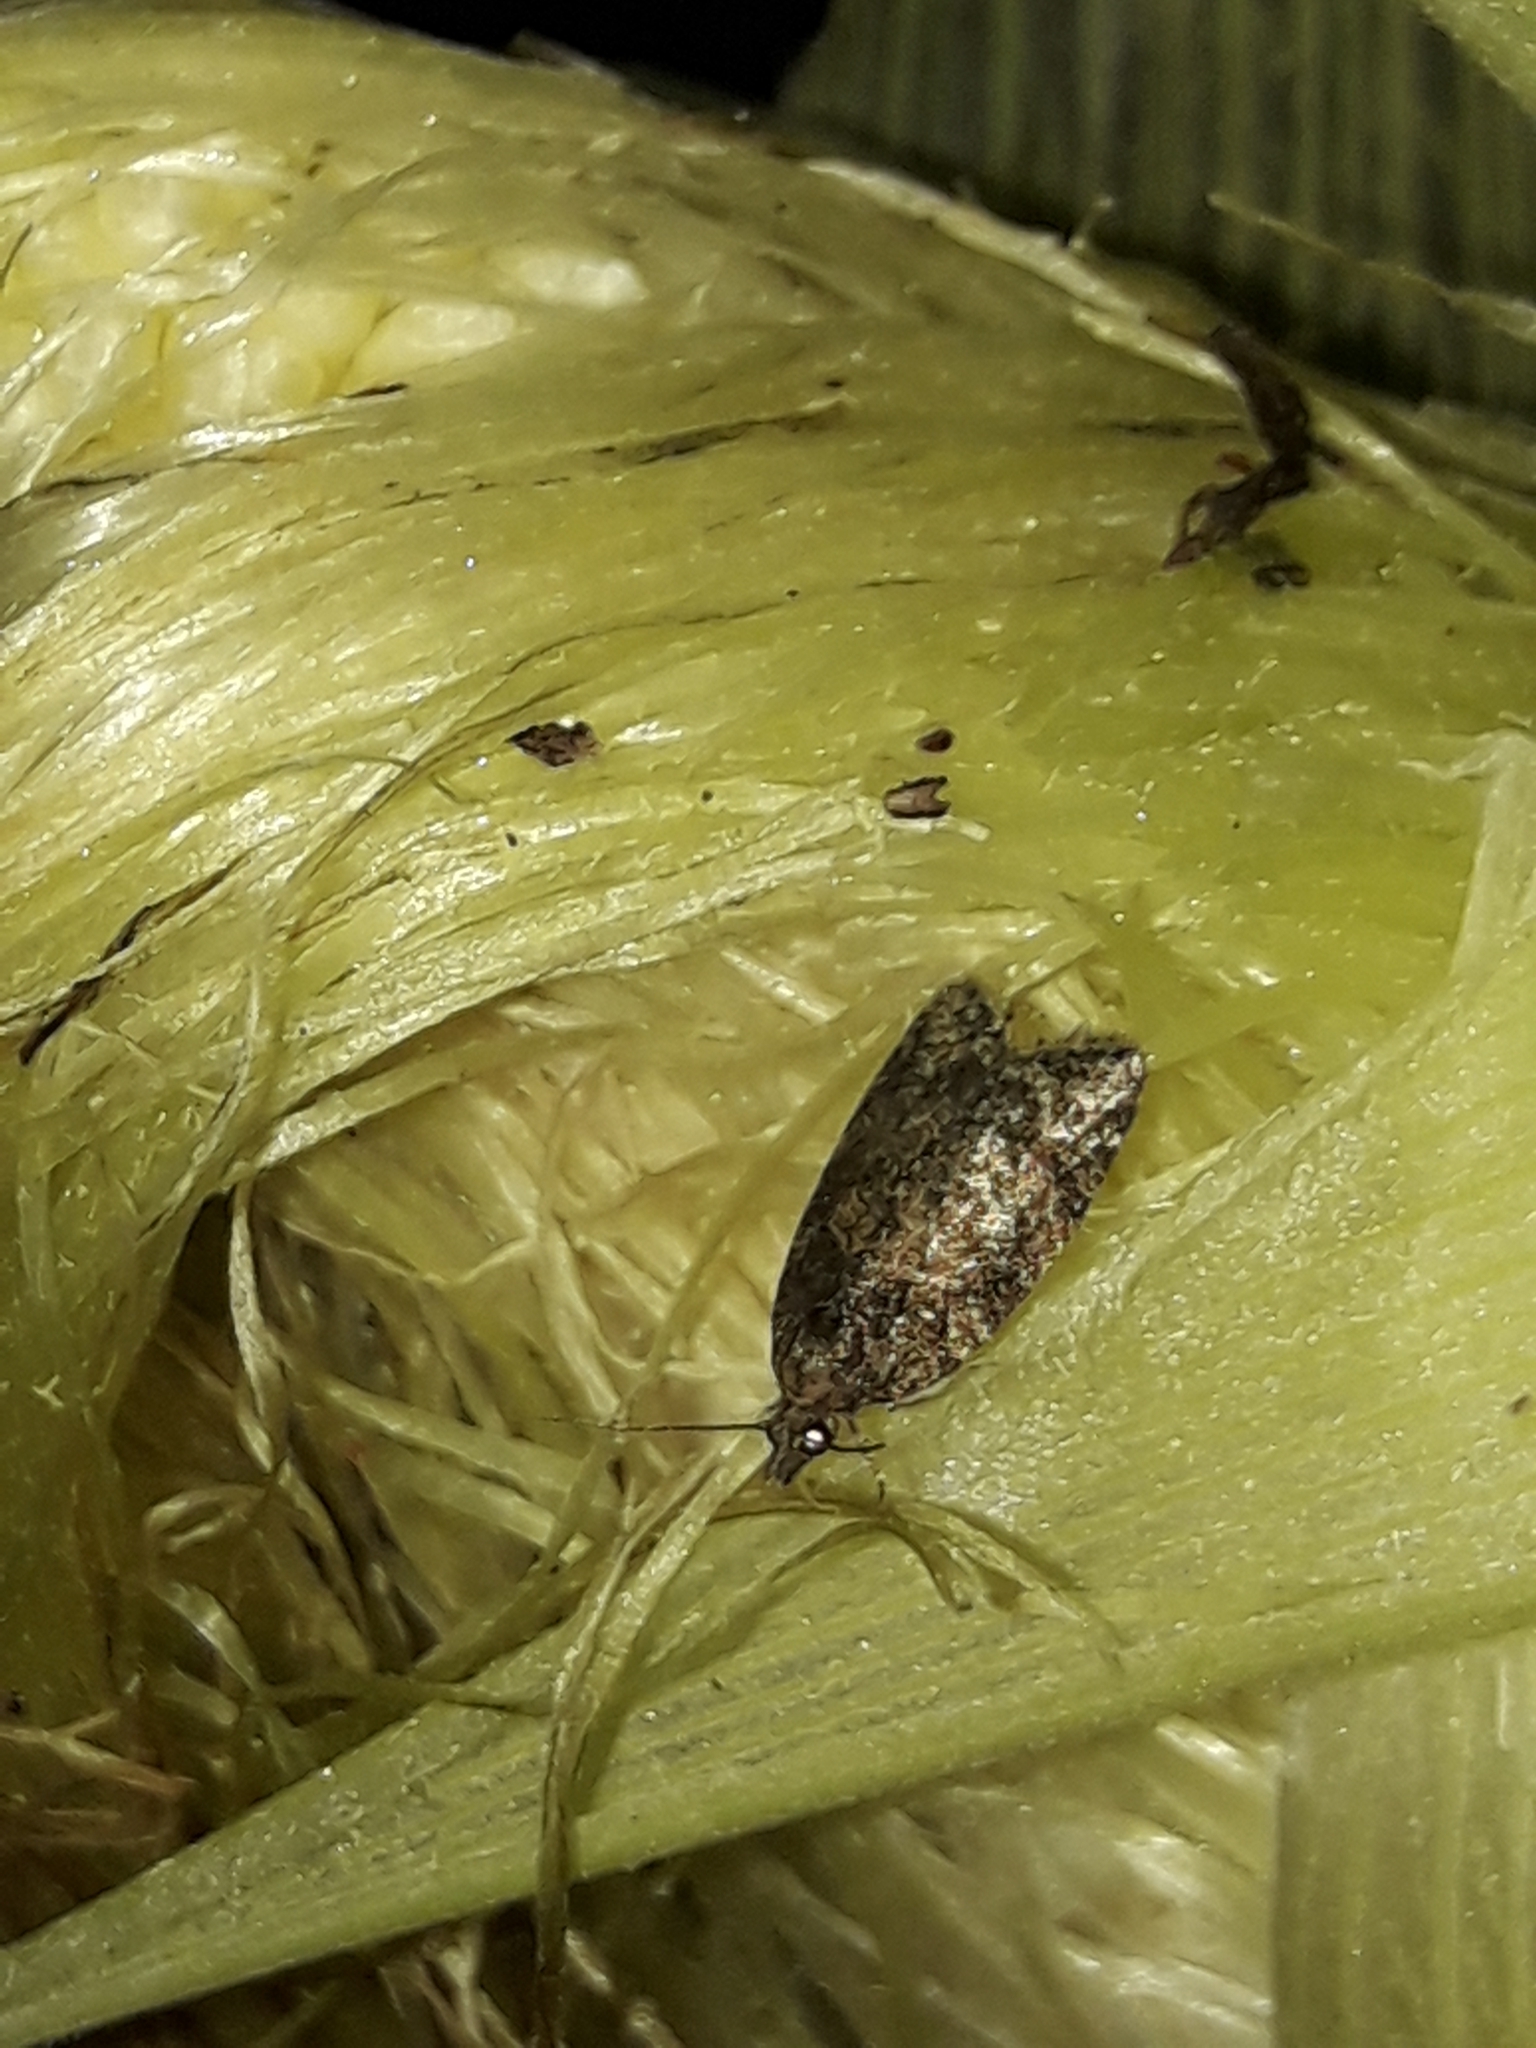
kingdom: Animalia
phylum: Arthropoda
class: Insecta
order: Lepidoptera
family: Tortricidae
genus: Capua
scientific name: Capua intractana
